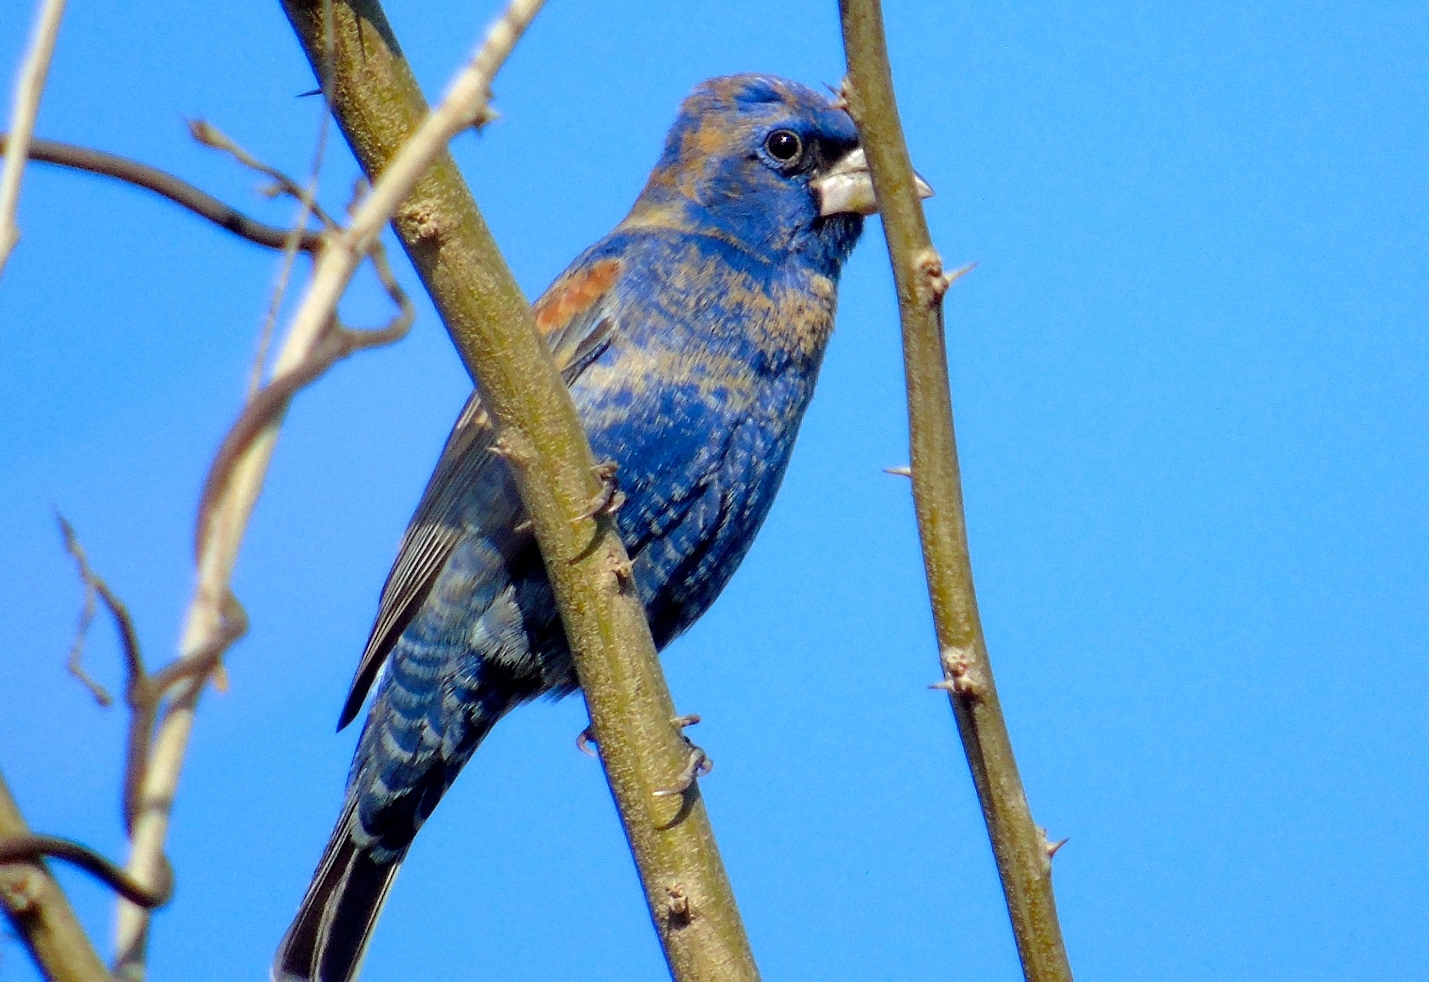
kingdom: Animalia
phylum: Chordata
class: Aves
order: Passeriformes
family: Cardinalidae
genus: Passerina
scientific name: Passerina caerulea
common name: Blue grosbeak
